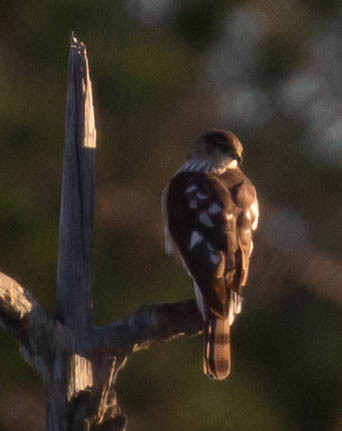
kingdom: Animalia
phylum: Chordata
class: Aves
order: Accipitriformes
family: Accipitridae
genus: Accipiter
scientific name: Accipiter striatus
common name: Sharp-shinned hawk
